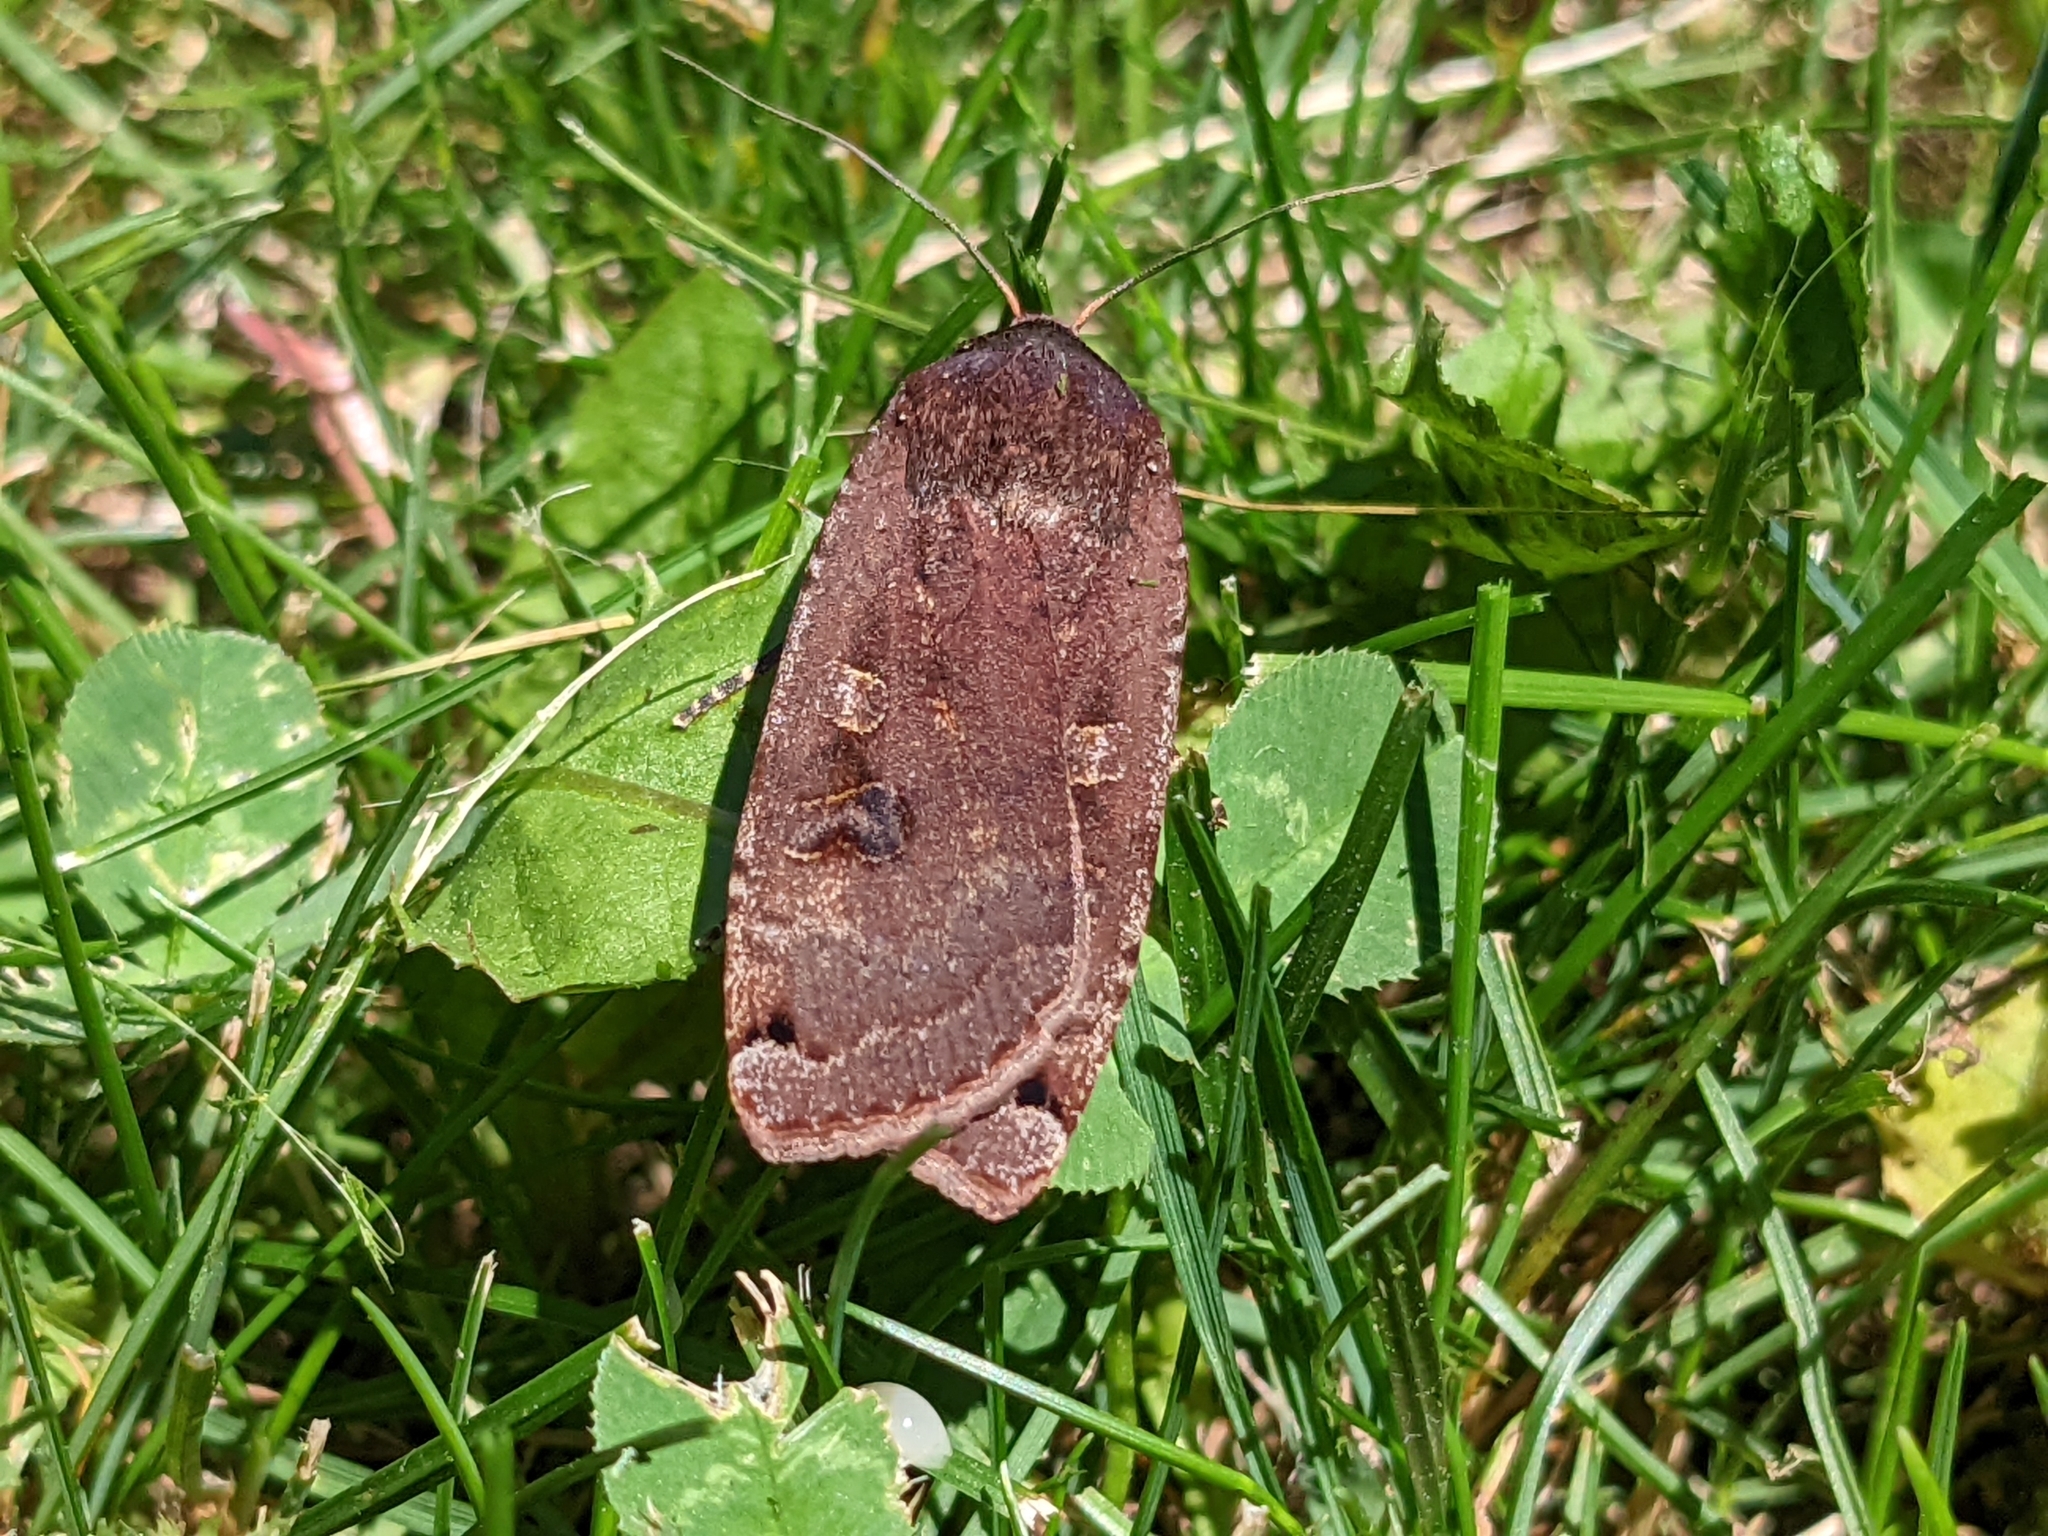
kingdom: Animalia
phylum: Arthropoda
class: Insecta
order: Lepidoptera
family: Noctuidae
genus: Noctua
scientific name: Noctua pronuba
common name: Large yellow underwing
